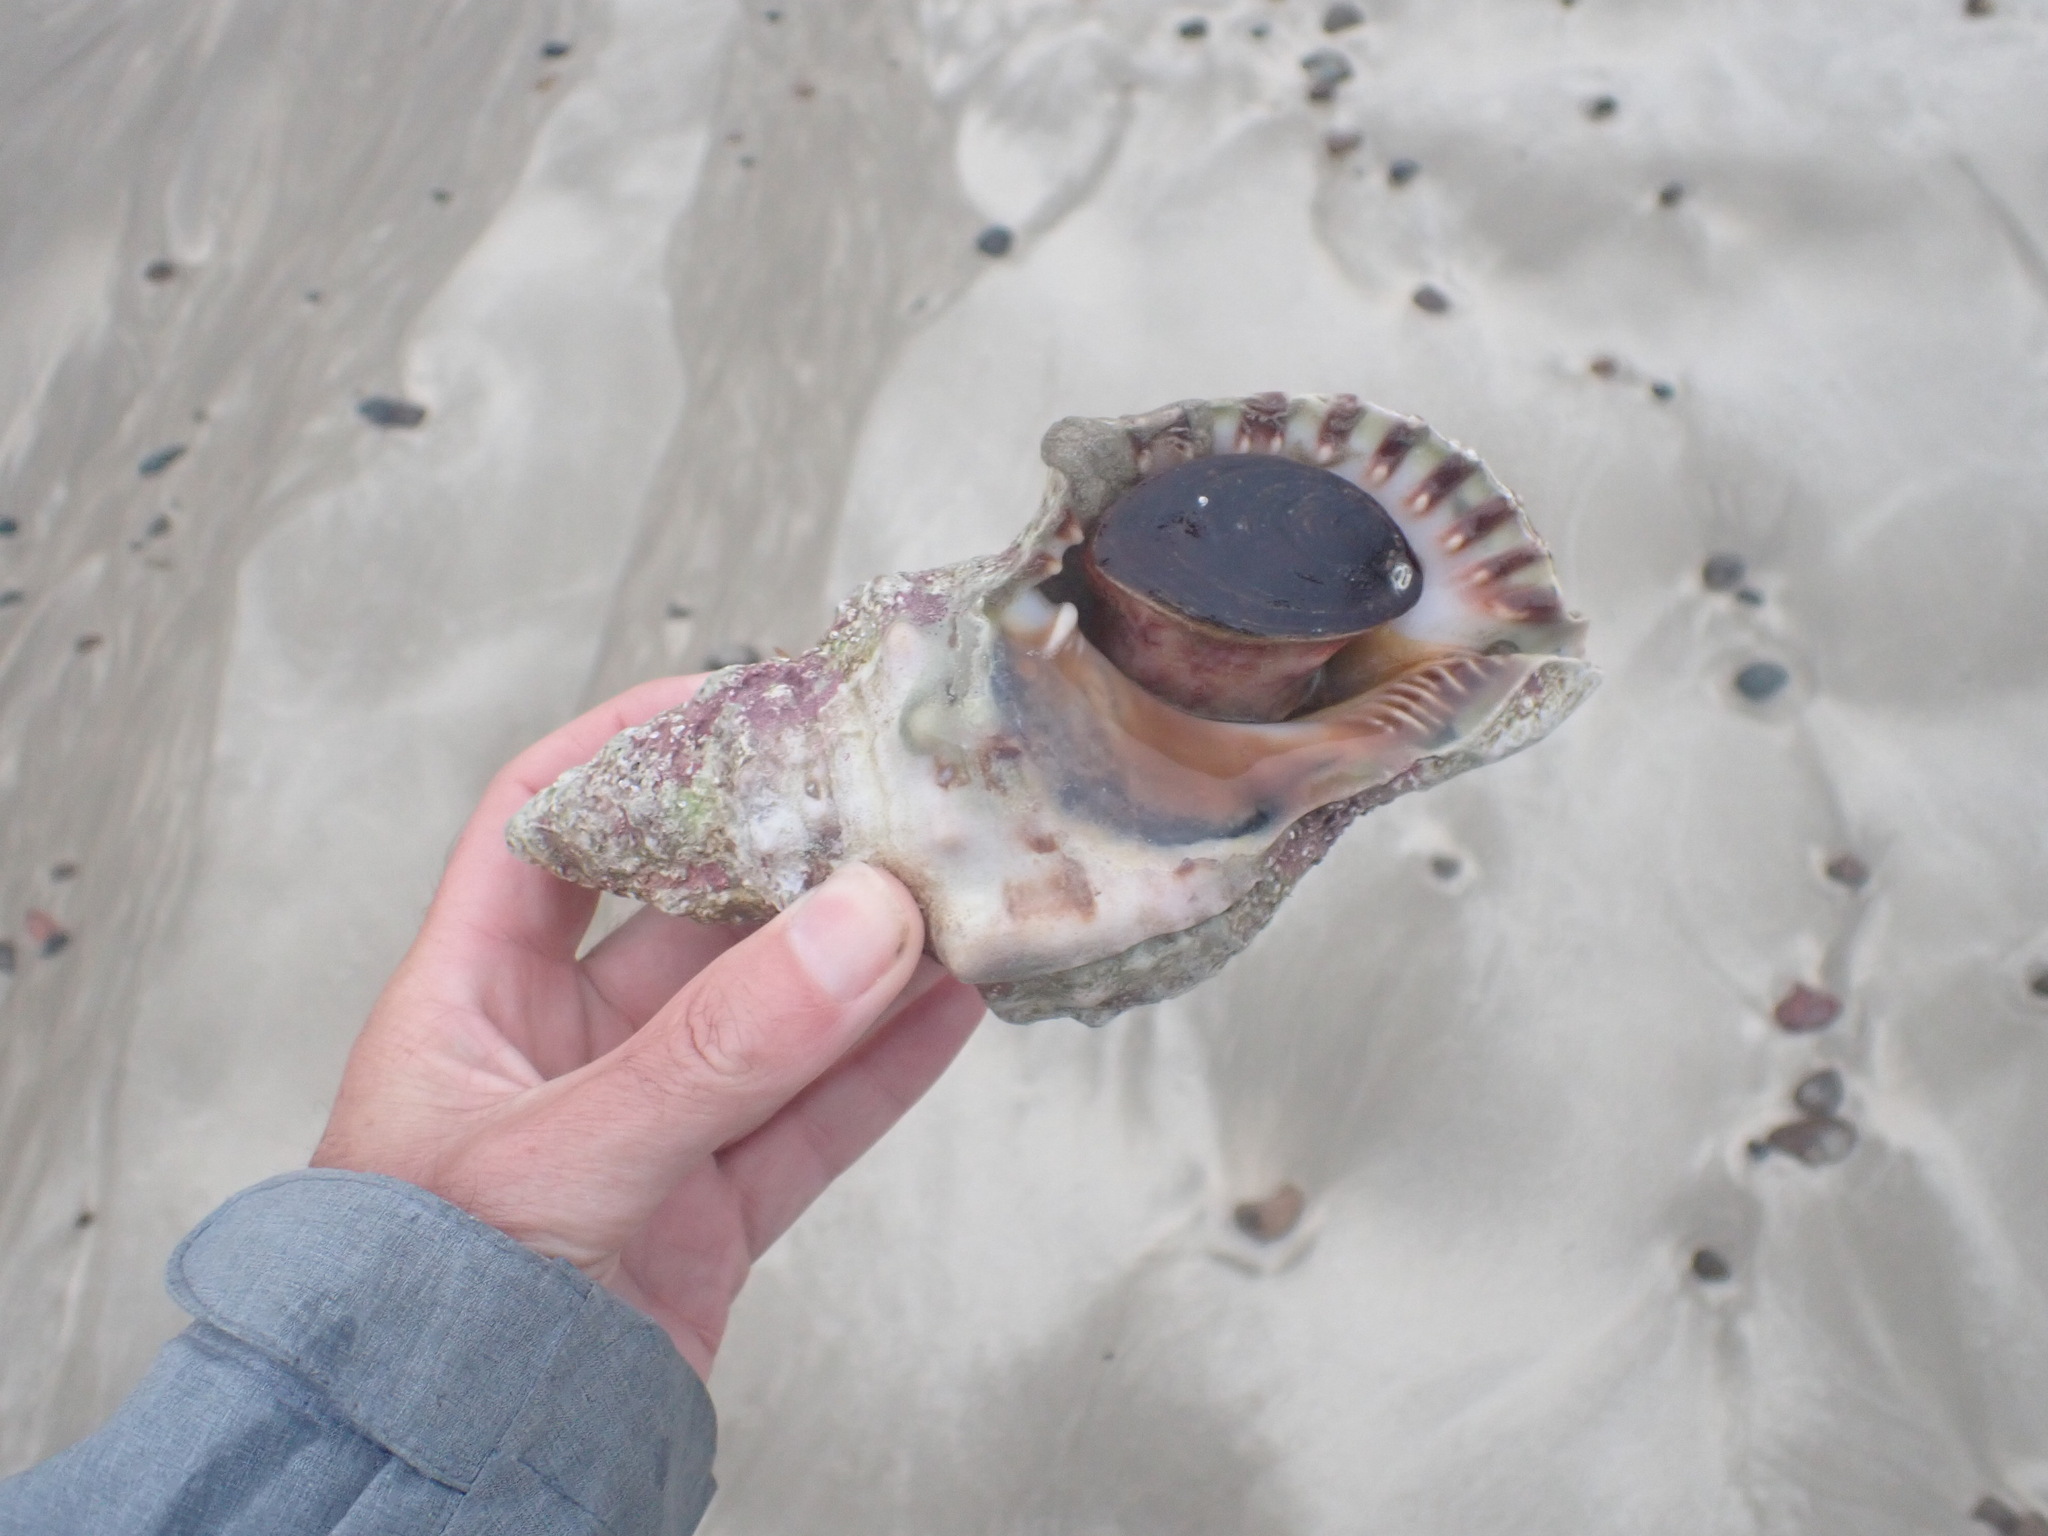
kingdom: Animalia
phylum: Mollusca
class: Gastropoda
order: Littorinimorpha
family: Charoniidae
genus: Charonia
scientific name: Charonia lampas
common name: Knobbed triton
